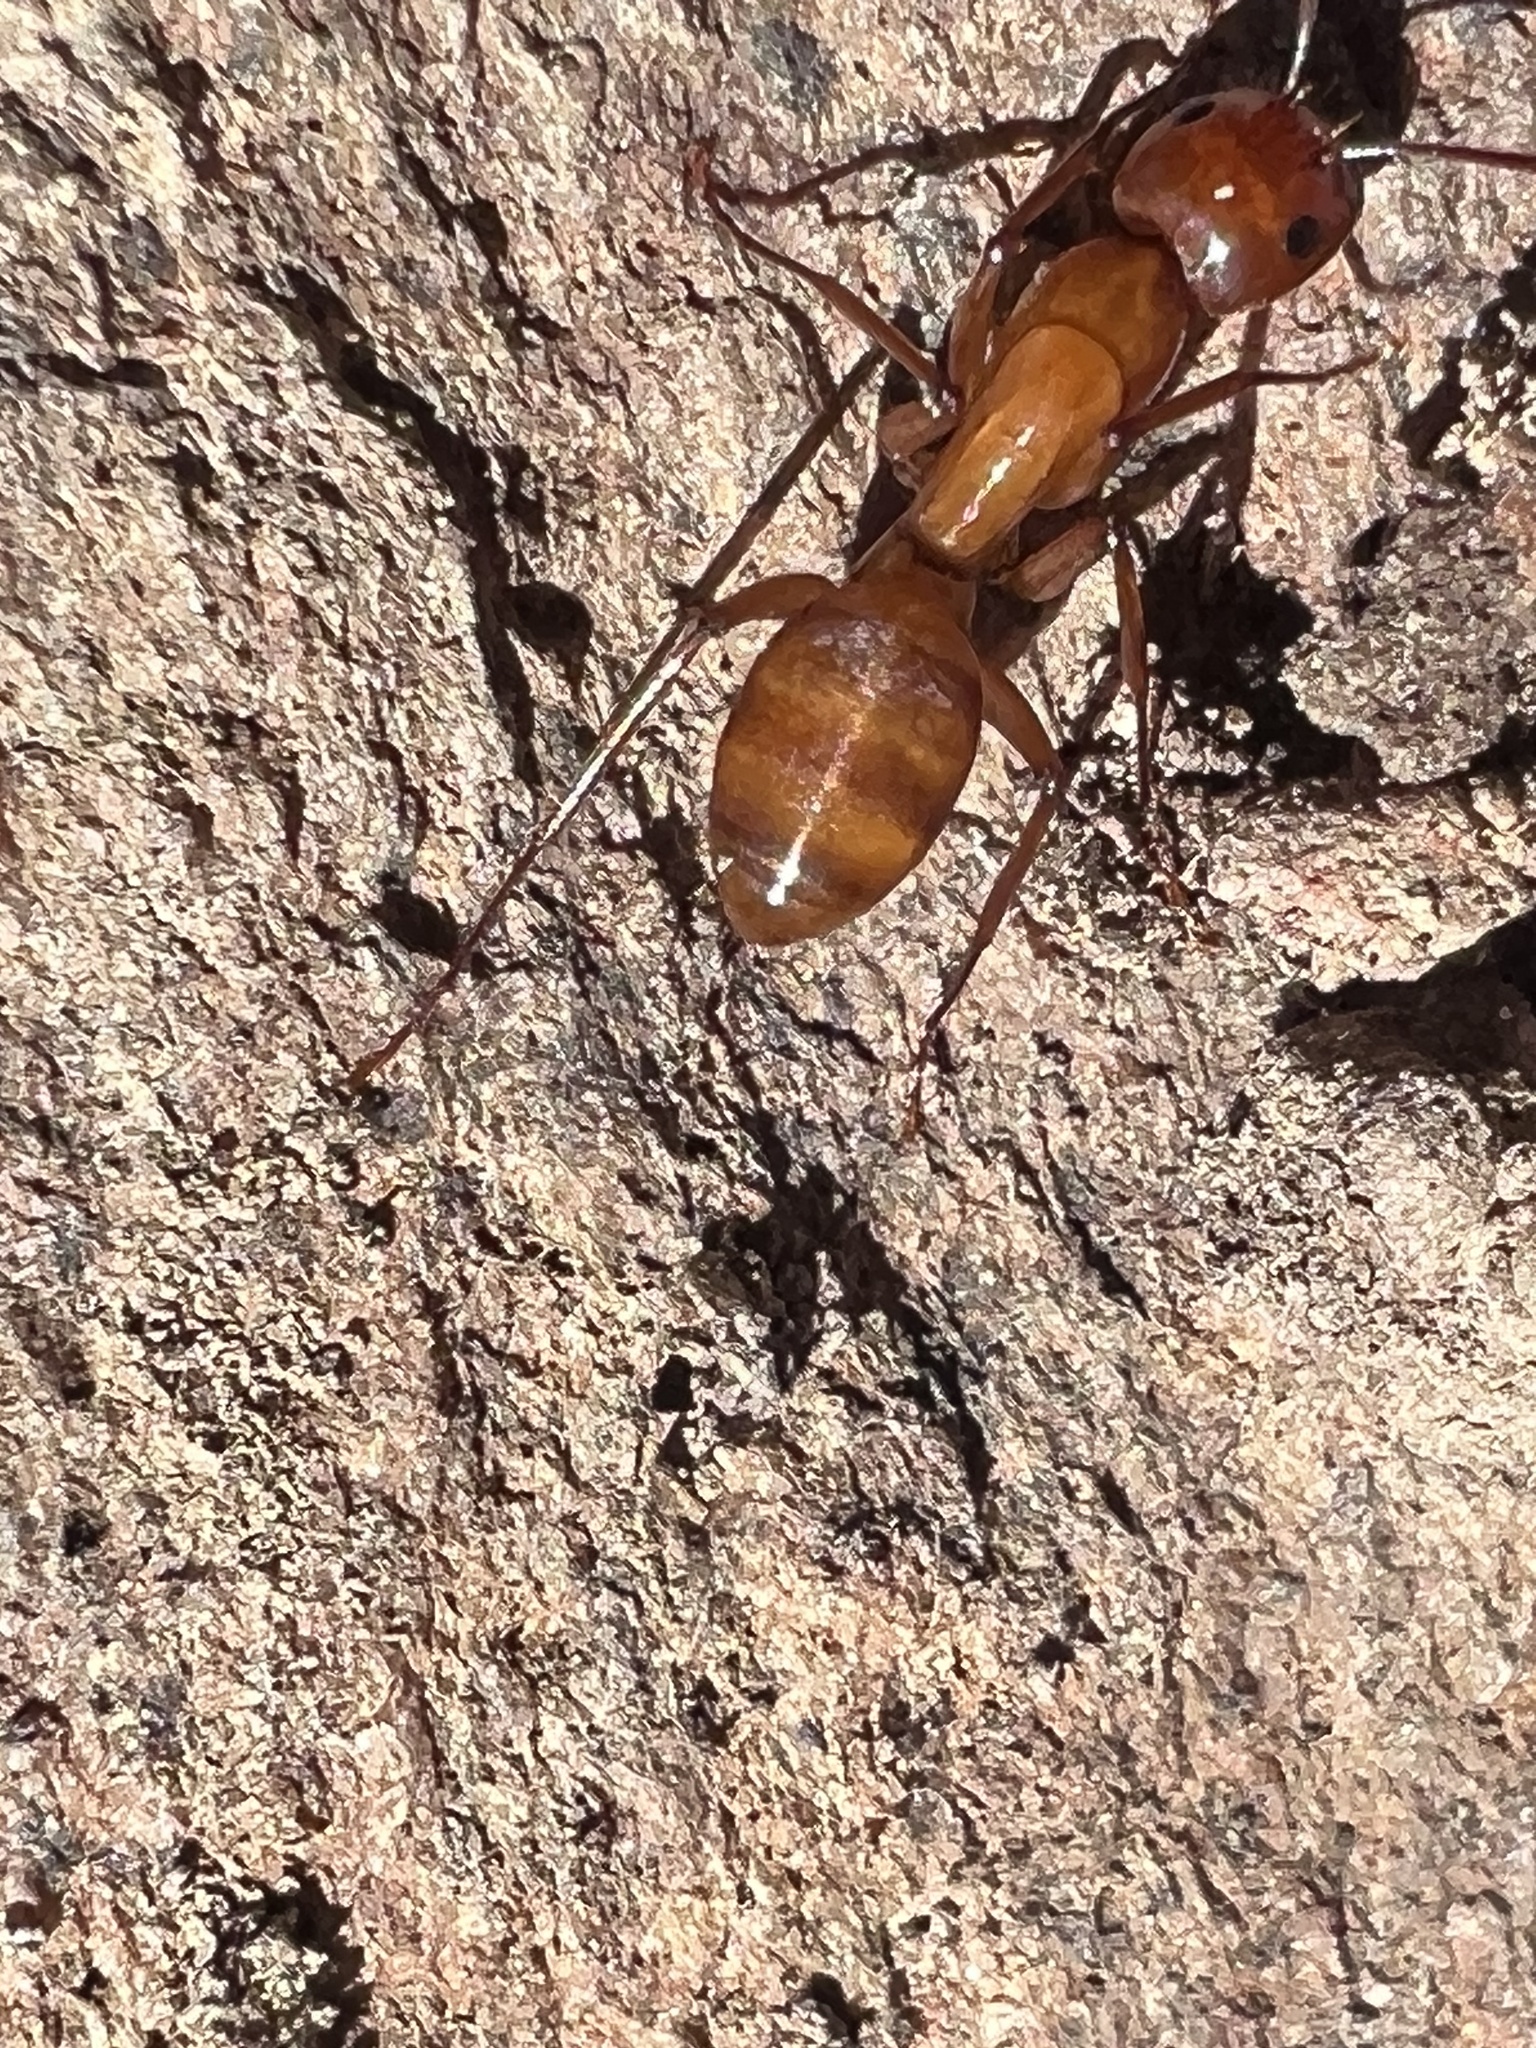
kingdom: Animalia
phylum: Arthropoda
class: Insecta
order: Hymenoptera
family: Formicidae
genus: Camponotus
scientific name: Camponotus castaneus
